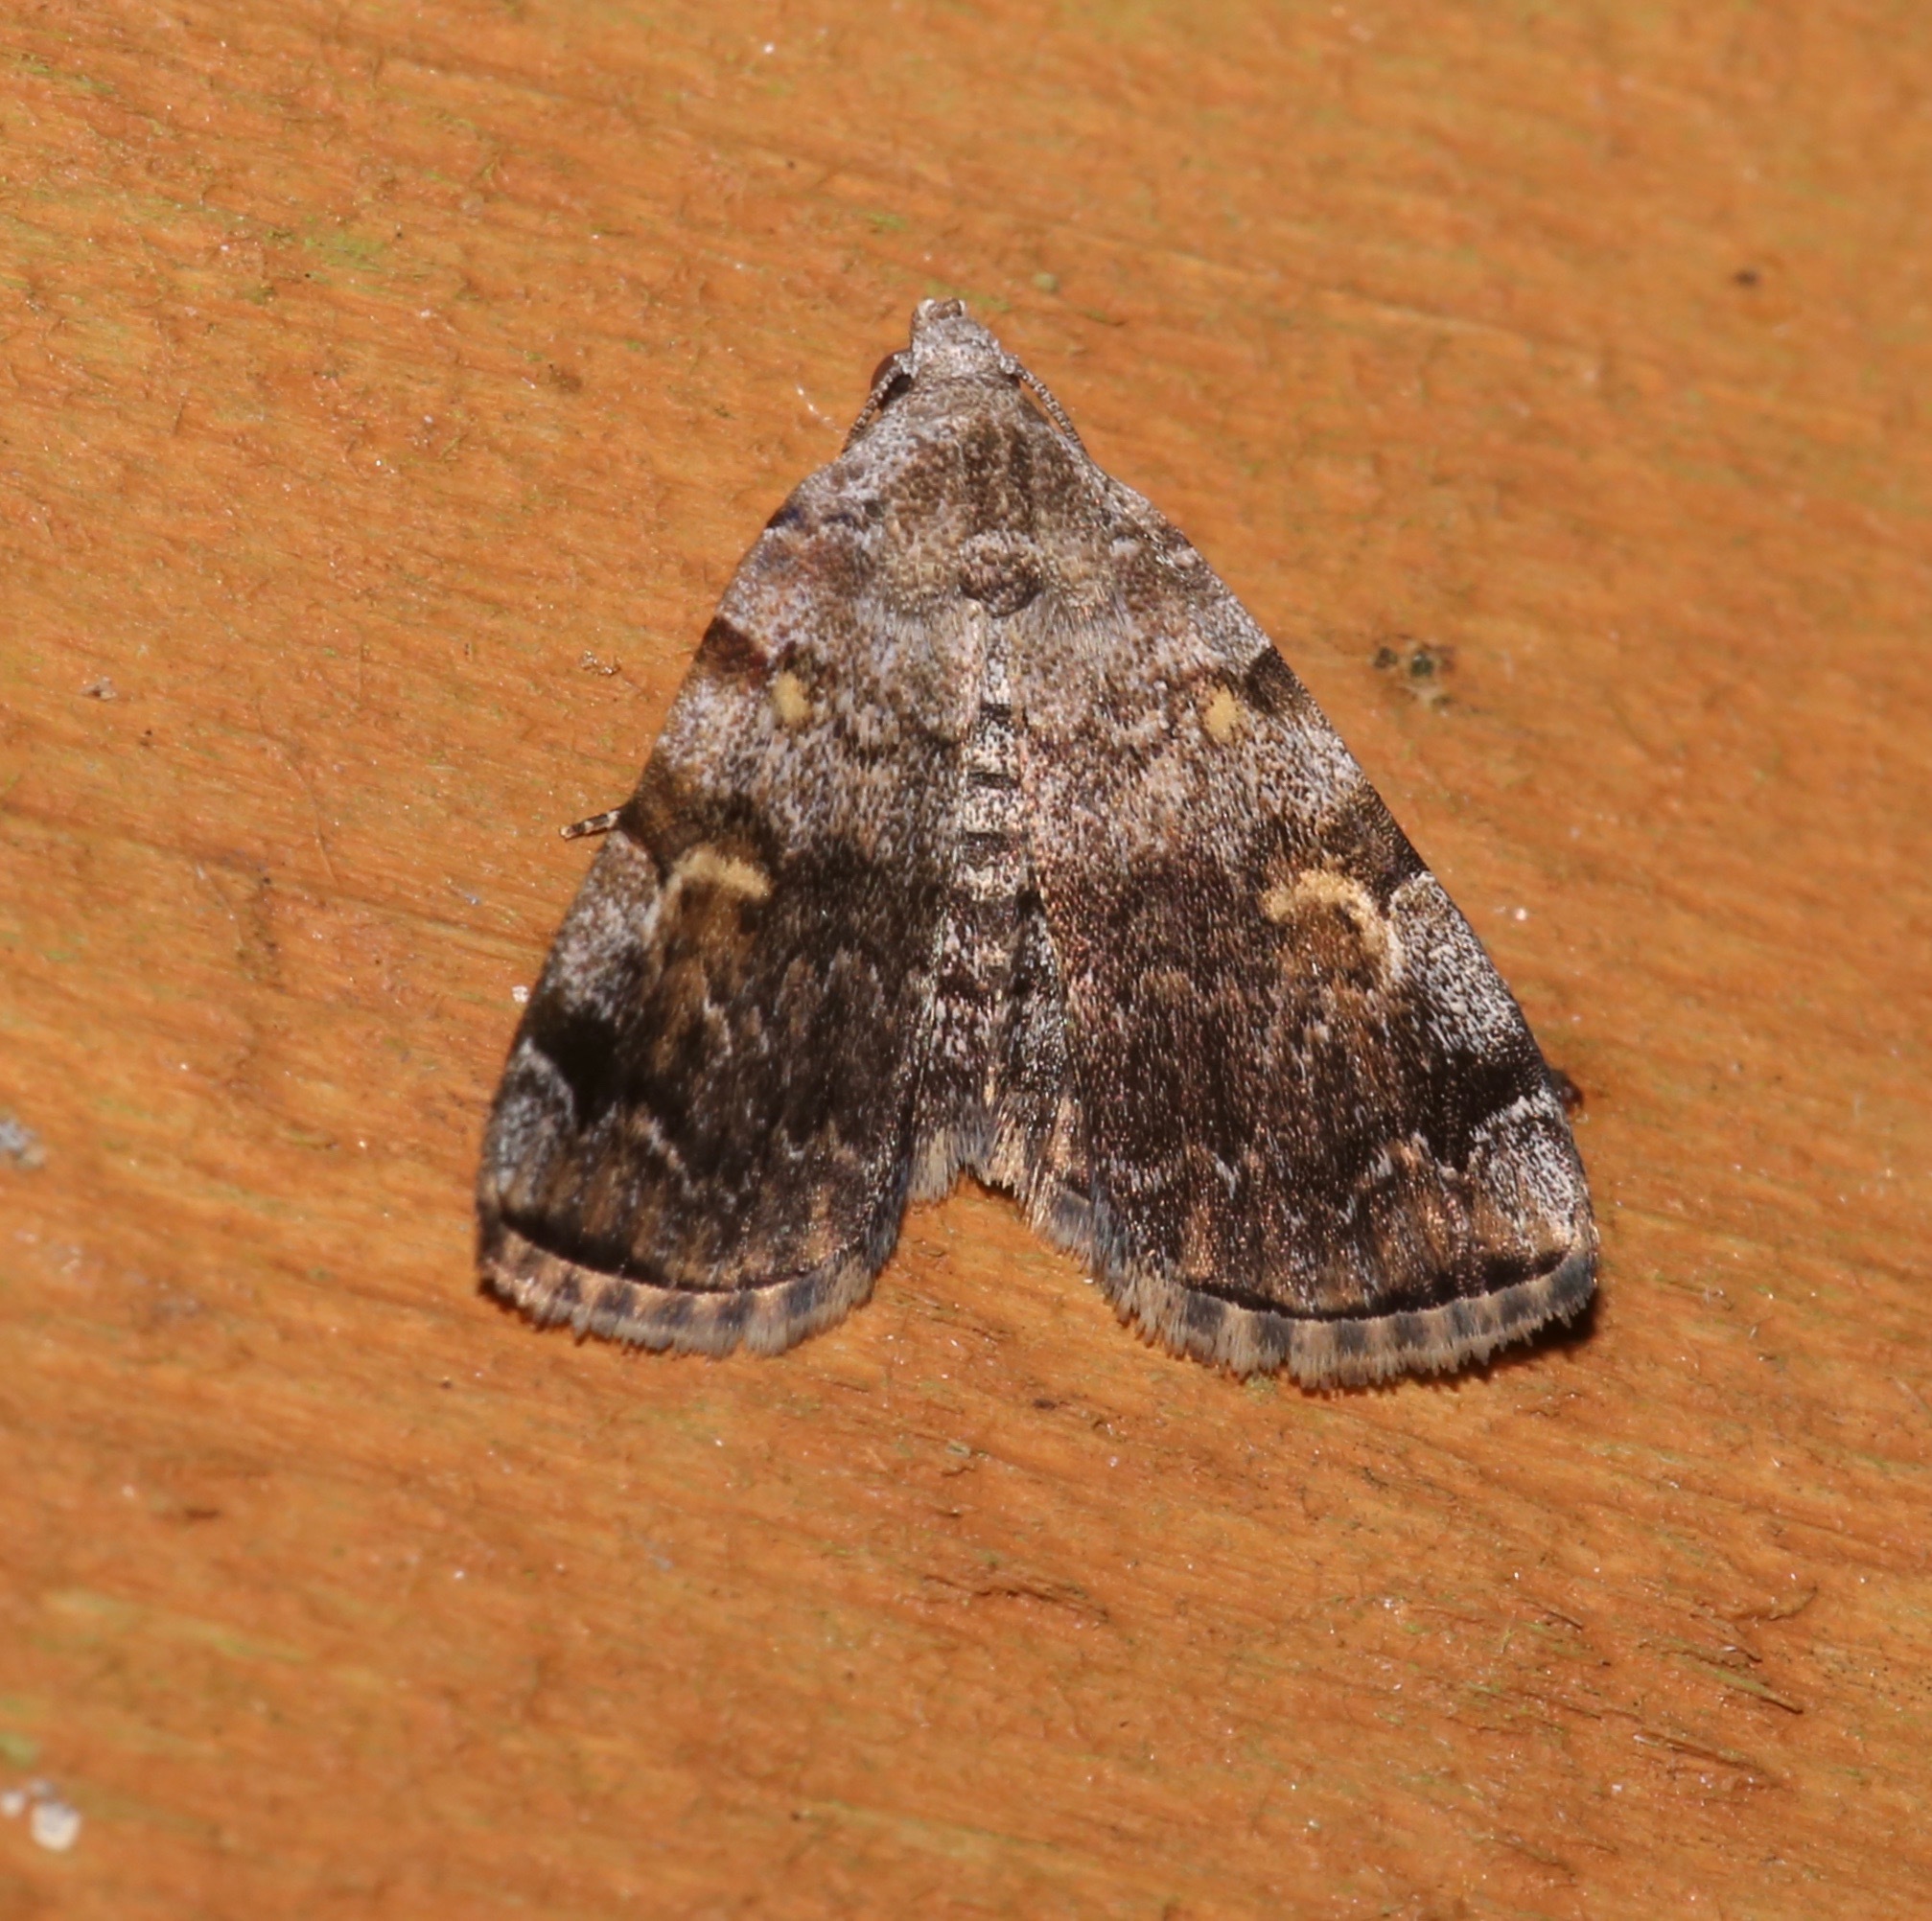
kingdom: Animalia
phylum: Arthropoda
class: Insecta
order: Lepidoptera
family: Erebidae
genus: Idia
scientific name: Idia americalis
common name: American idia moth
